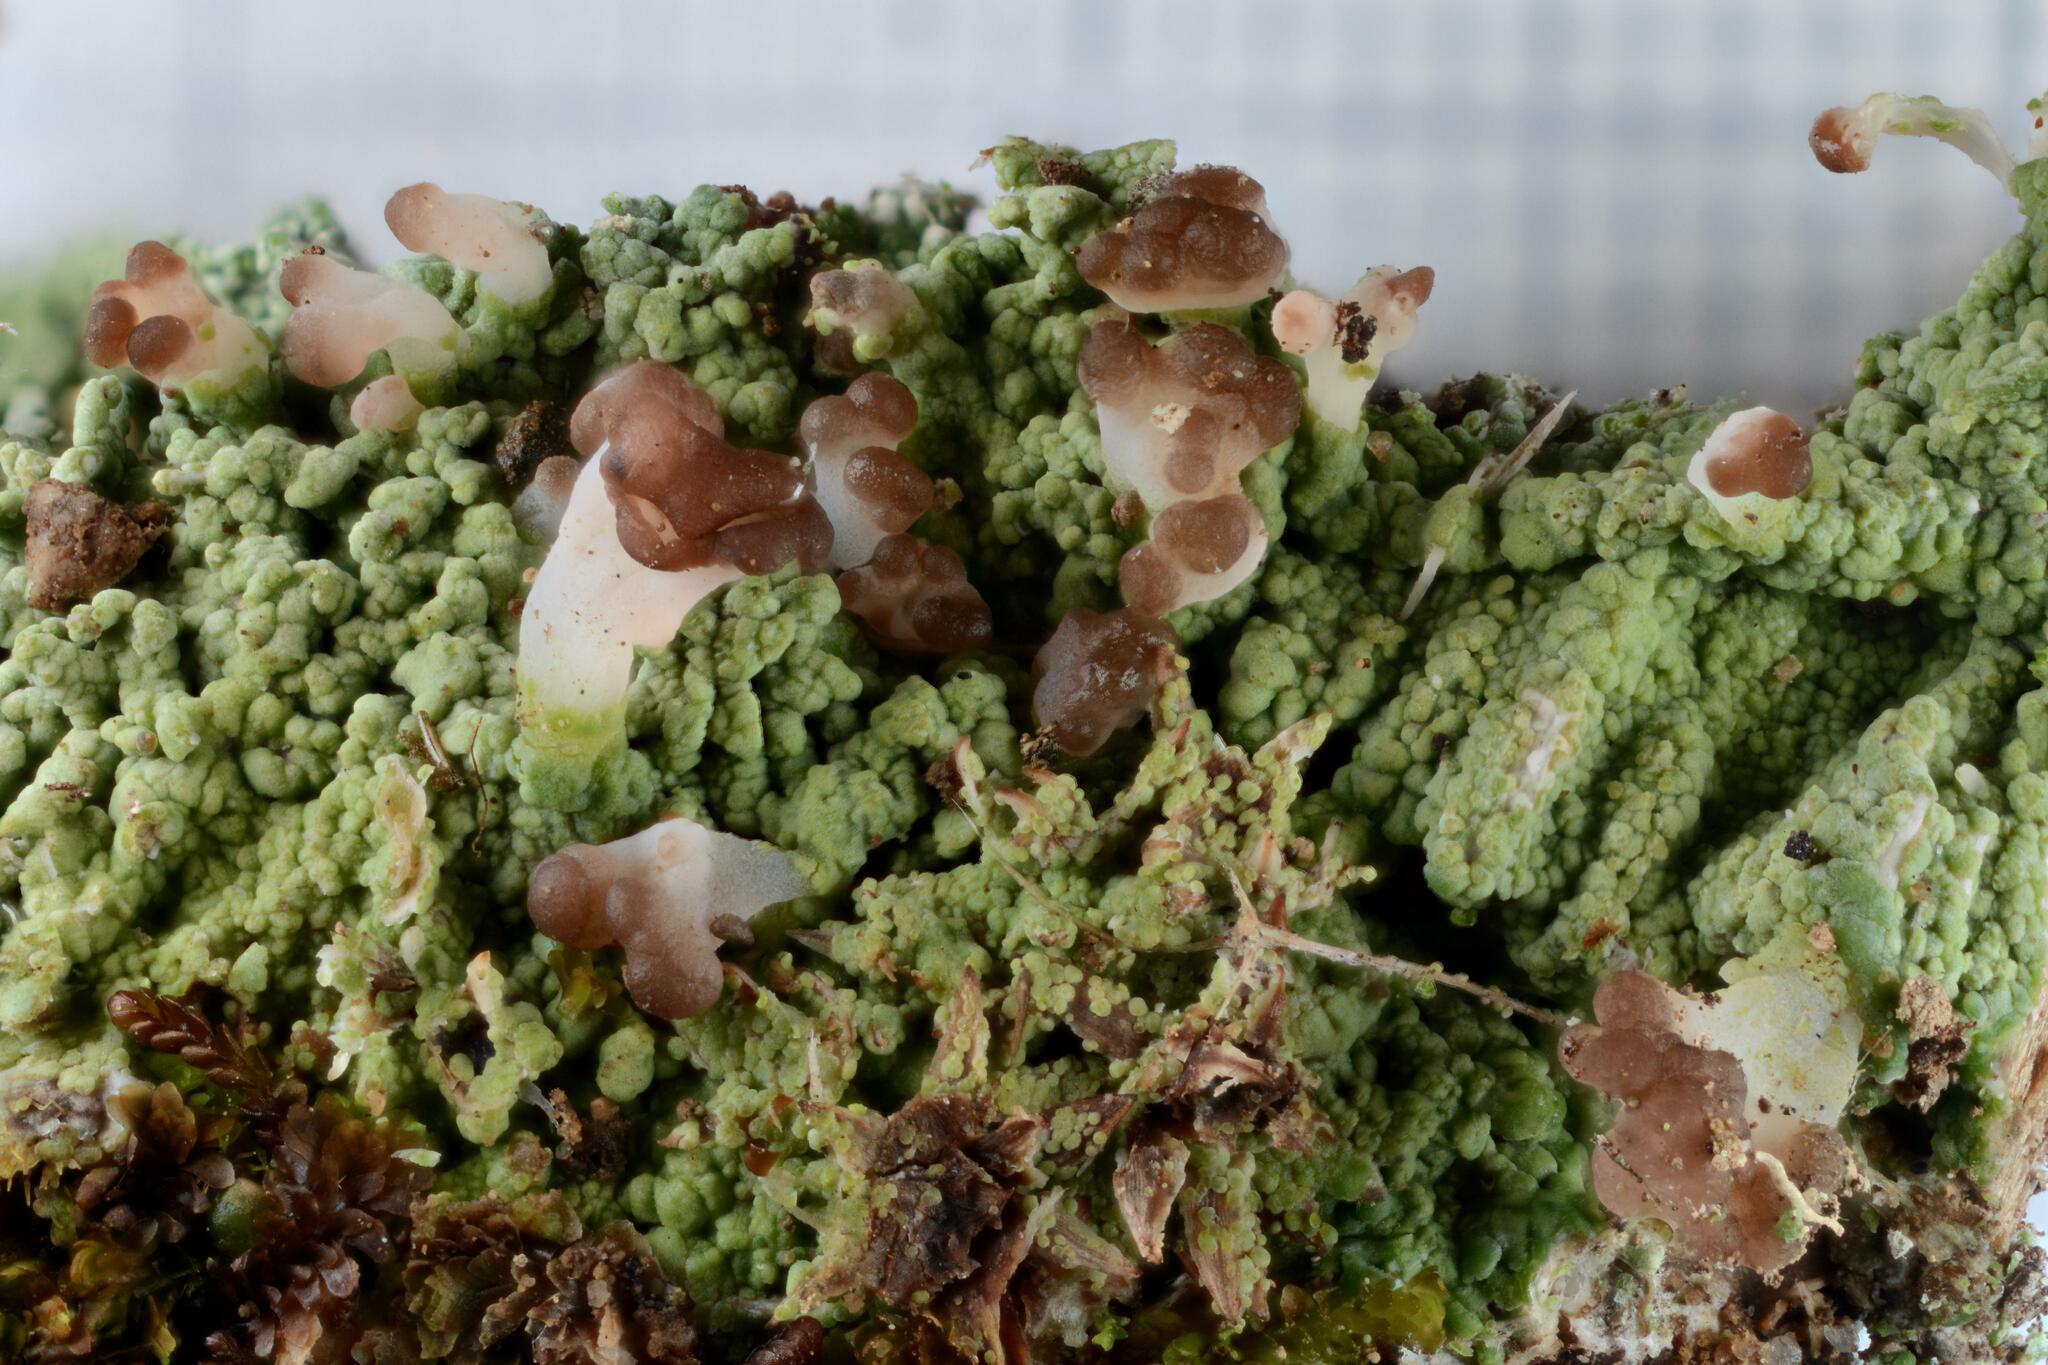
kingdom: Fungi
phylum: Ascomycota
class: Lecanoromycetes
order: Baeomycetales
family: Baeomycetaceae
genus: Baeomyces
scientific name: Baeomyces rufus
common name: Brown beret lichen
